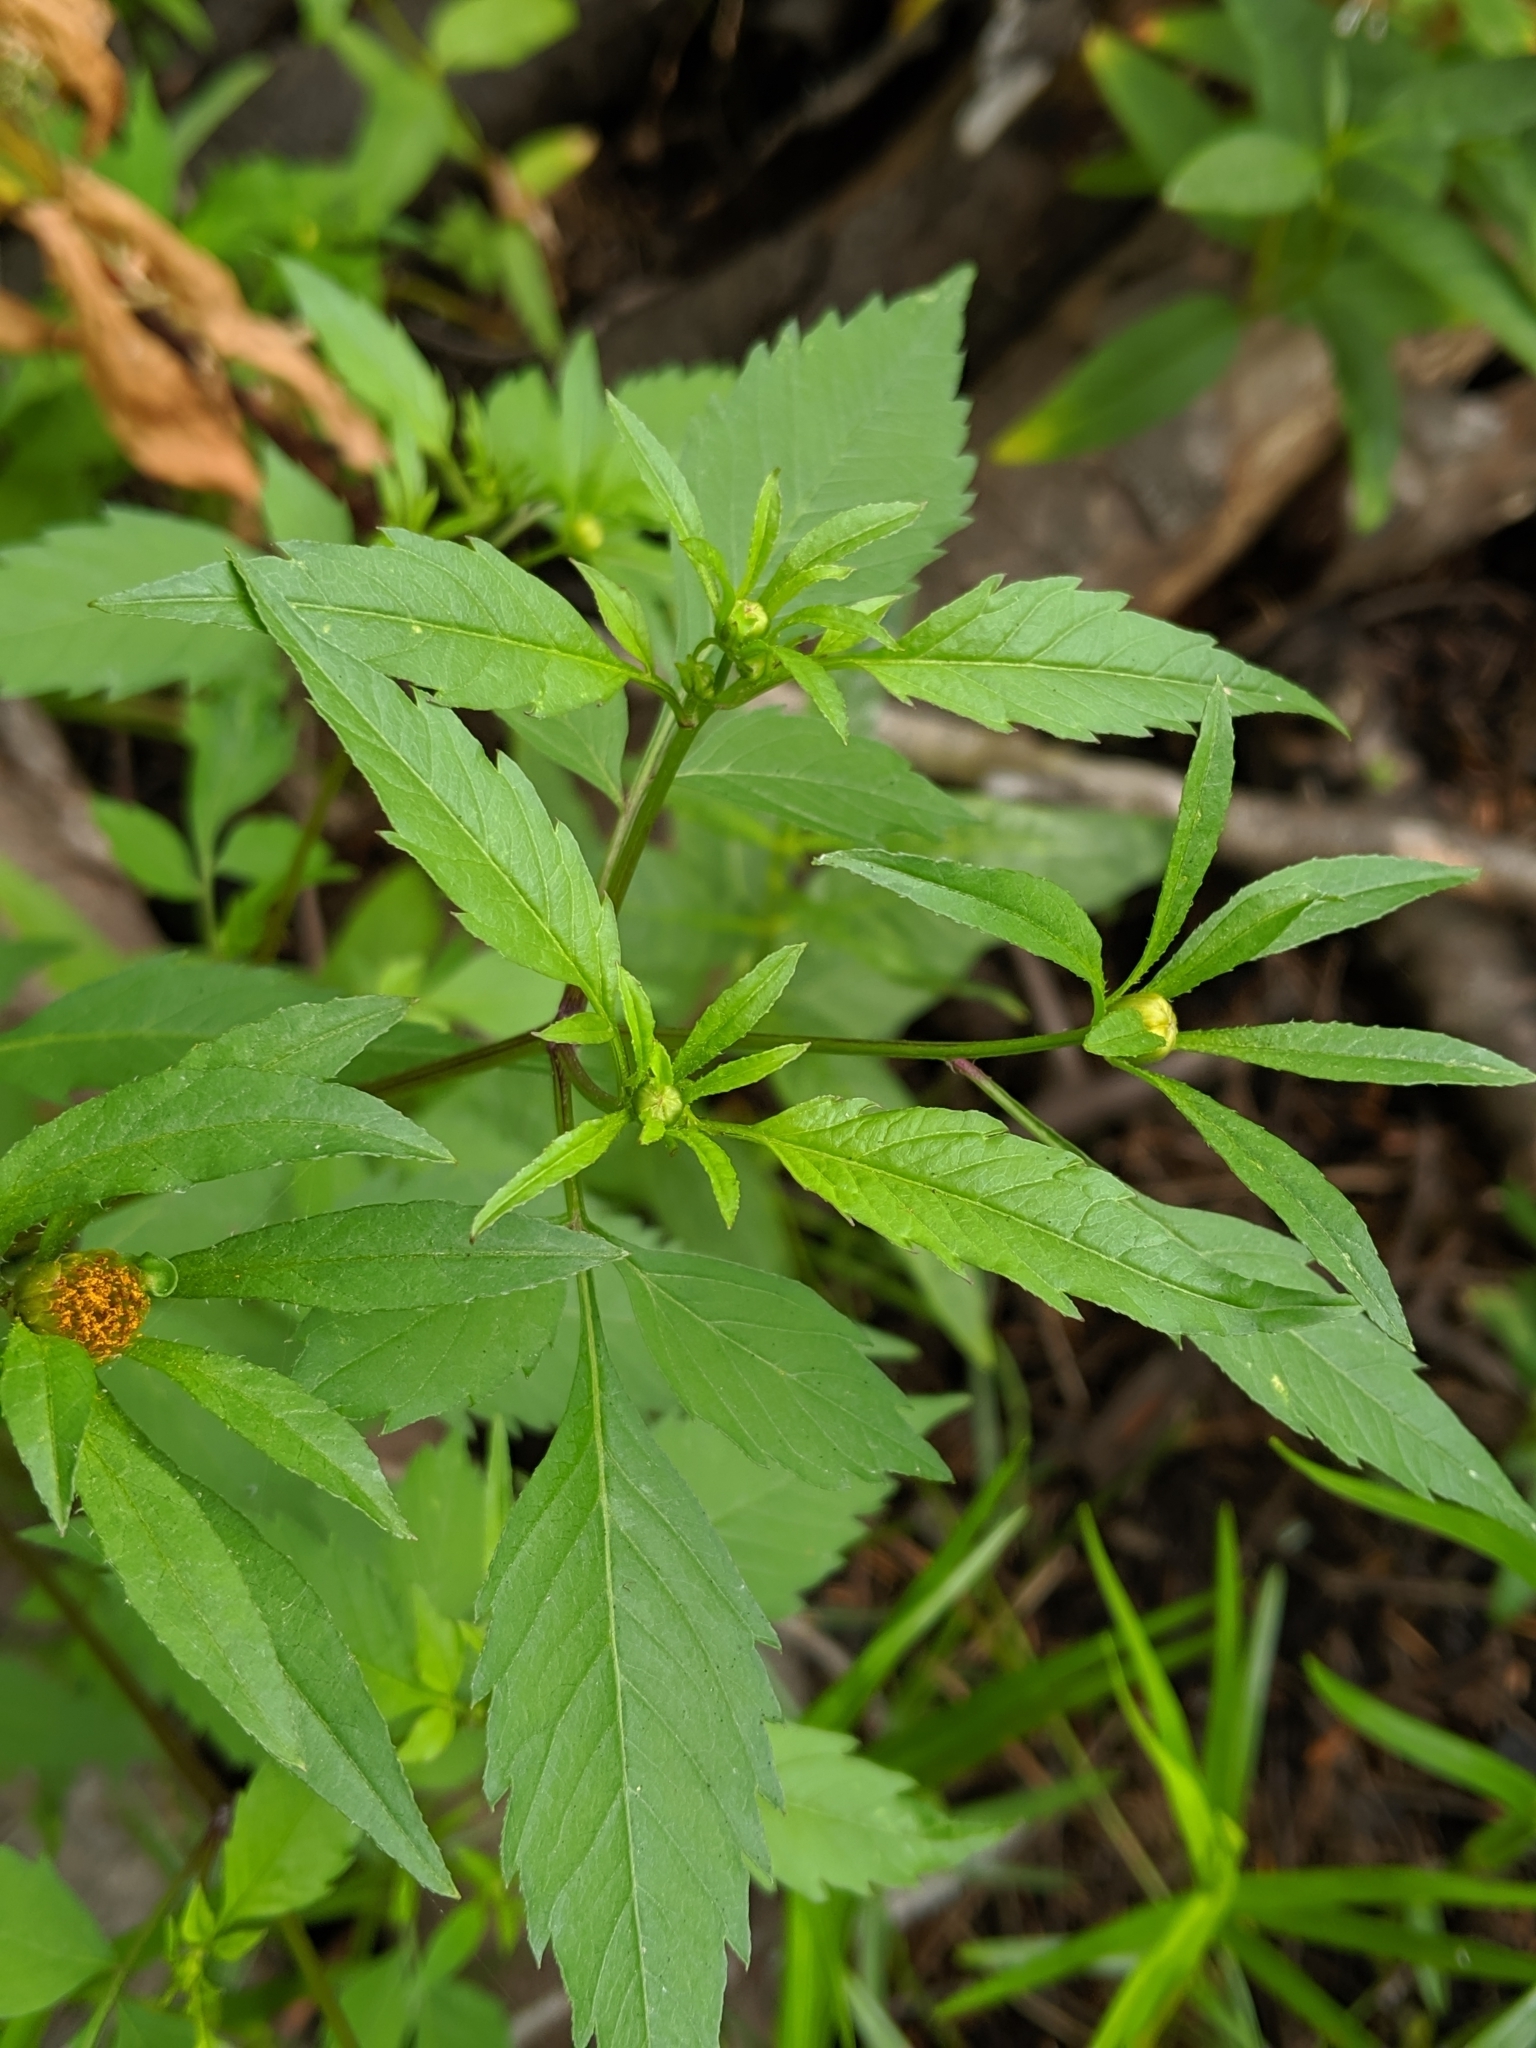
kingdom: Plantae
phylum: Tracheophyta
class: Magnoliopsida
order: Asterales
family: Asteraceae
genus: Bidens
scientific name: Bidens frondosa
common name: Beggarticks
